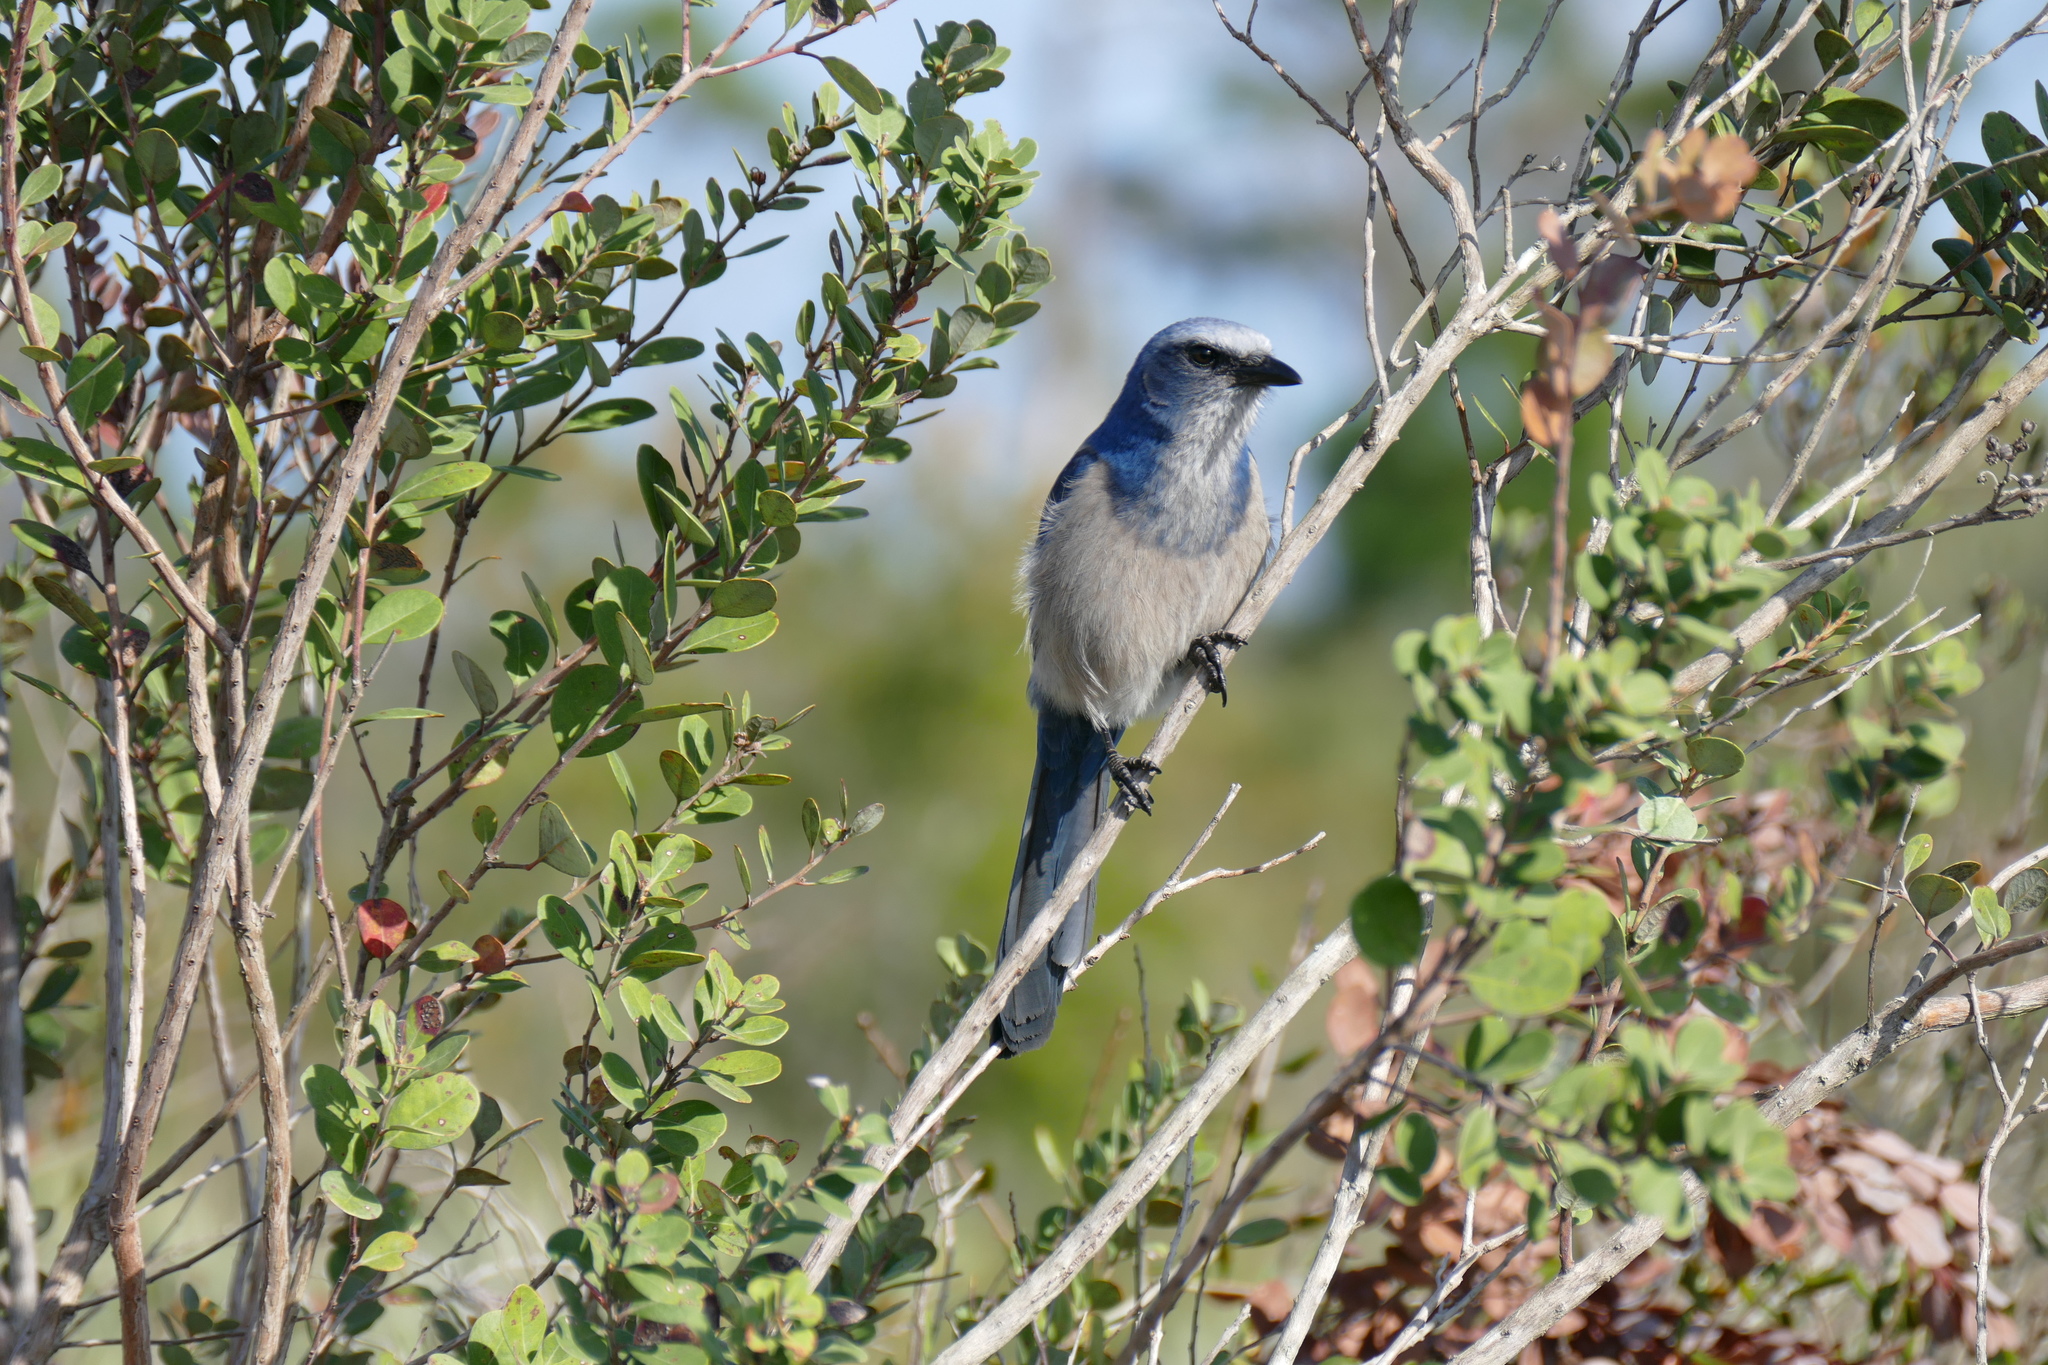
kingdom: Animalia
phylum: Chordata
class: Aves
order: Passeriformes
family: Corvidae
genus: Aphelocoma
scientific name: Aphelocoma coerulescens
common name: Florida scrub jay
